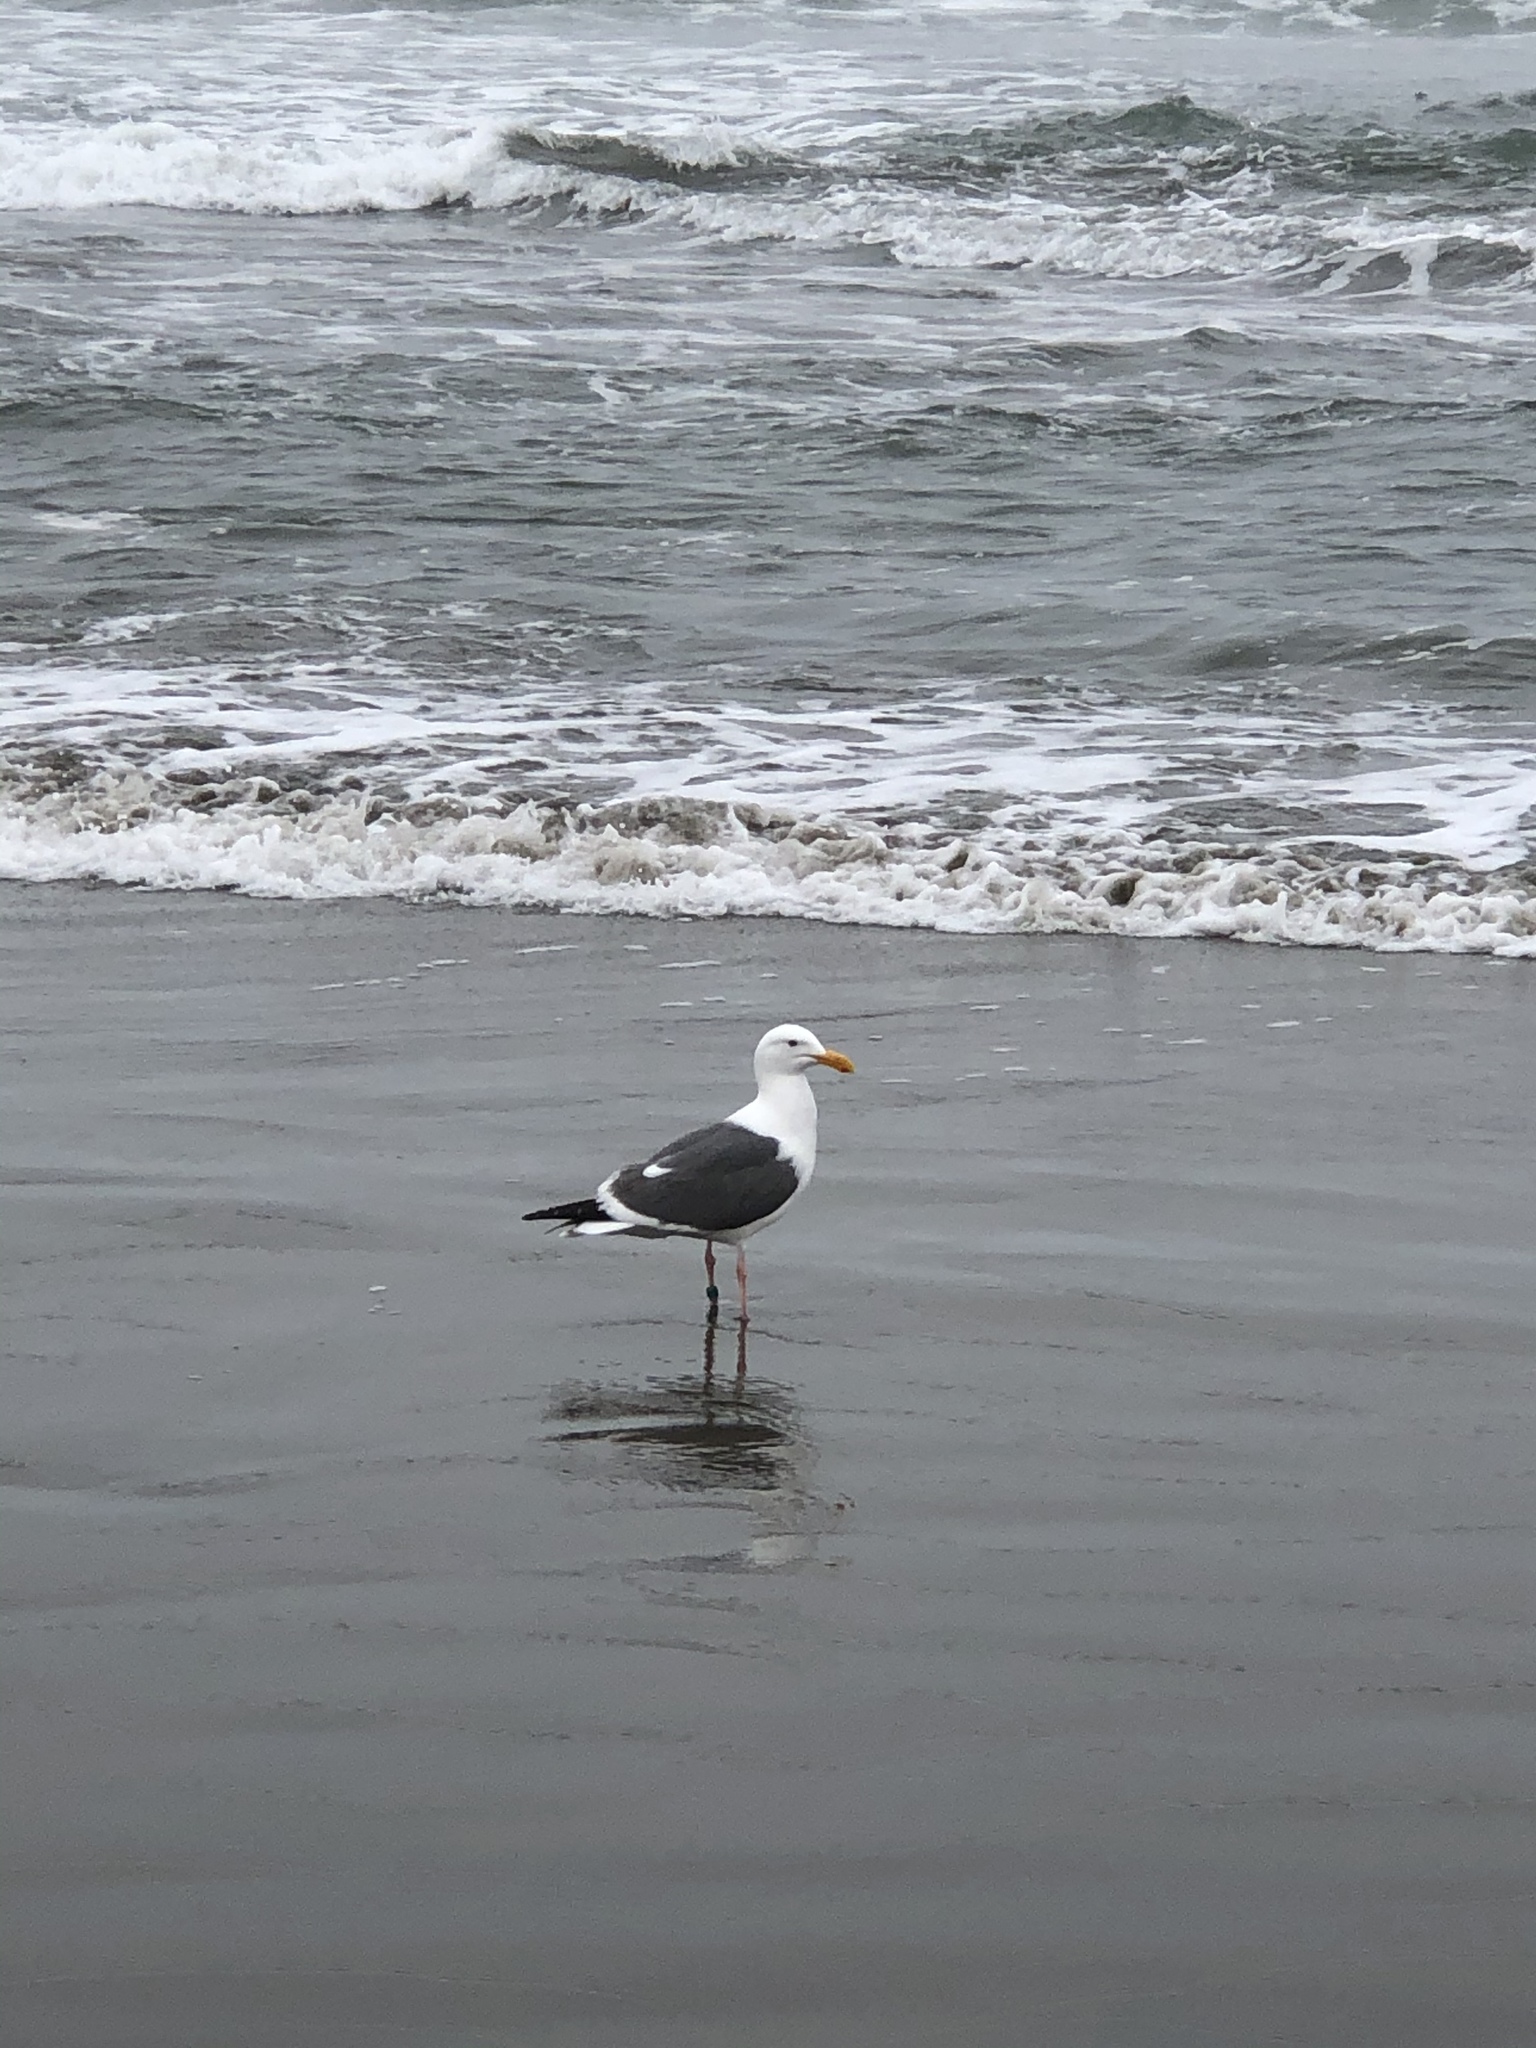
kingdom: Animalia
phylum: Chordata
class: Aves
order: Charadriiformes
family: Laridae
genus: Larus
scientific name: Larus occidentalis
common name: Western gull
